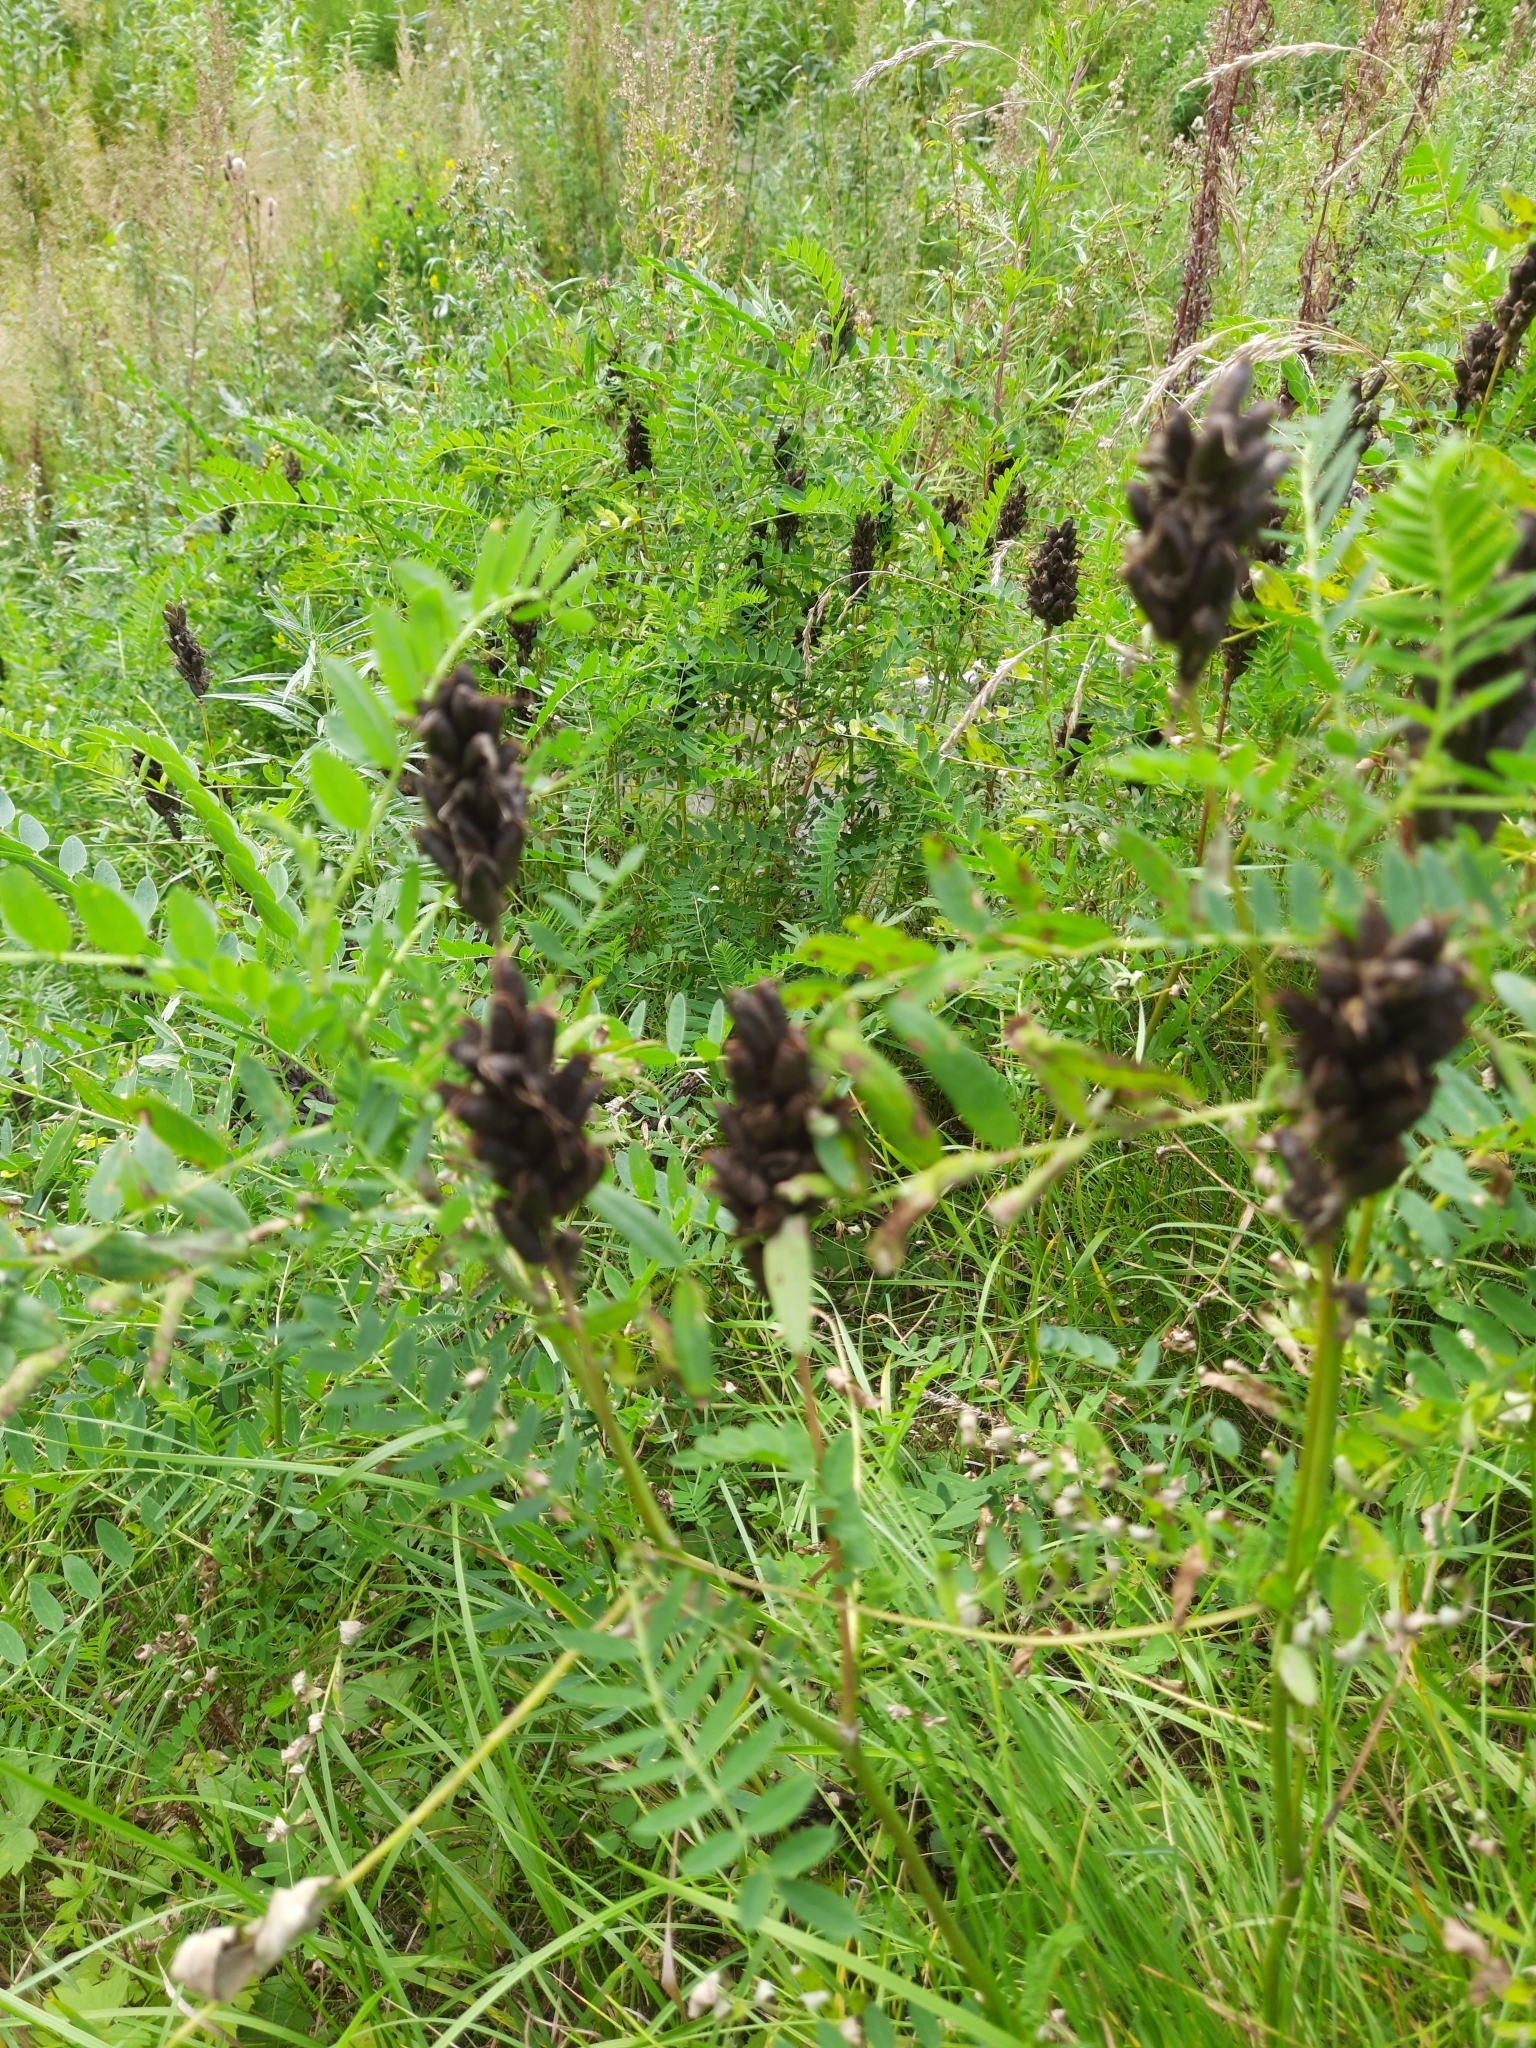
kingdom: Plantae
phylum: Tracheophyta
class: Magnoliopsida
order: Fabales
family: Fabaceae
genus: Astragalus
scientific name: Astragalus uliginosus
